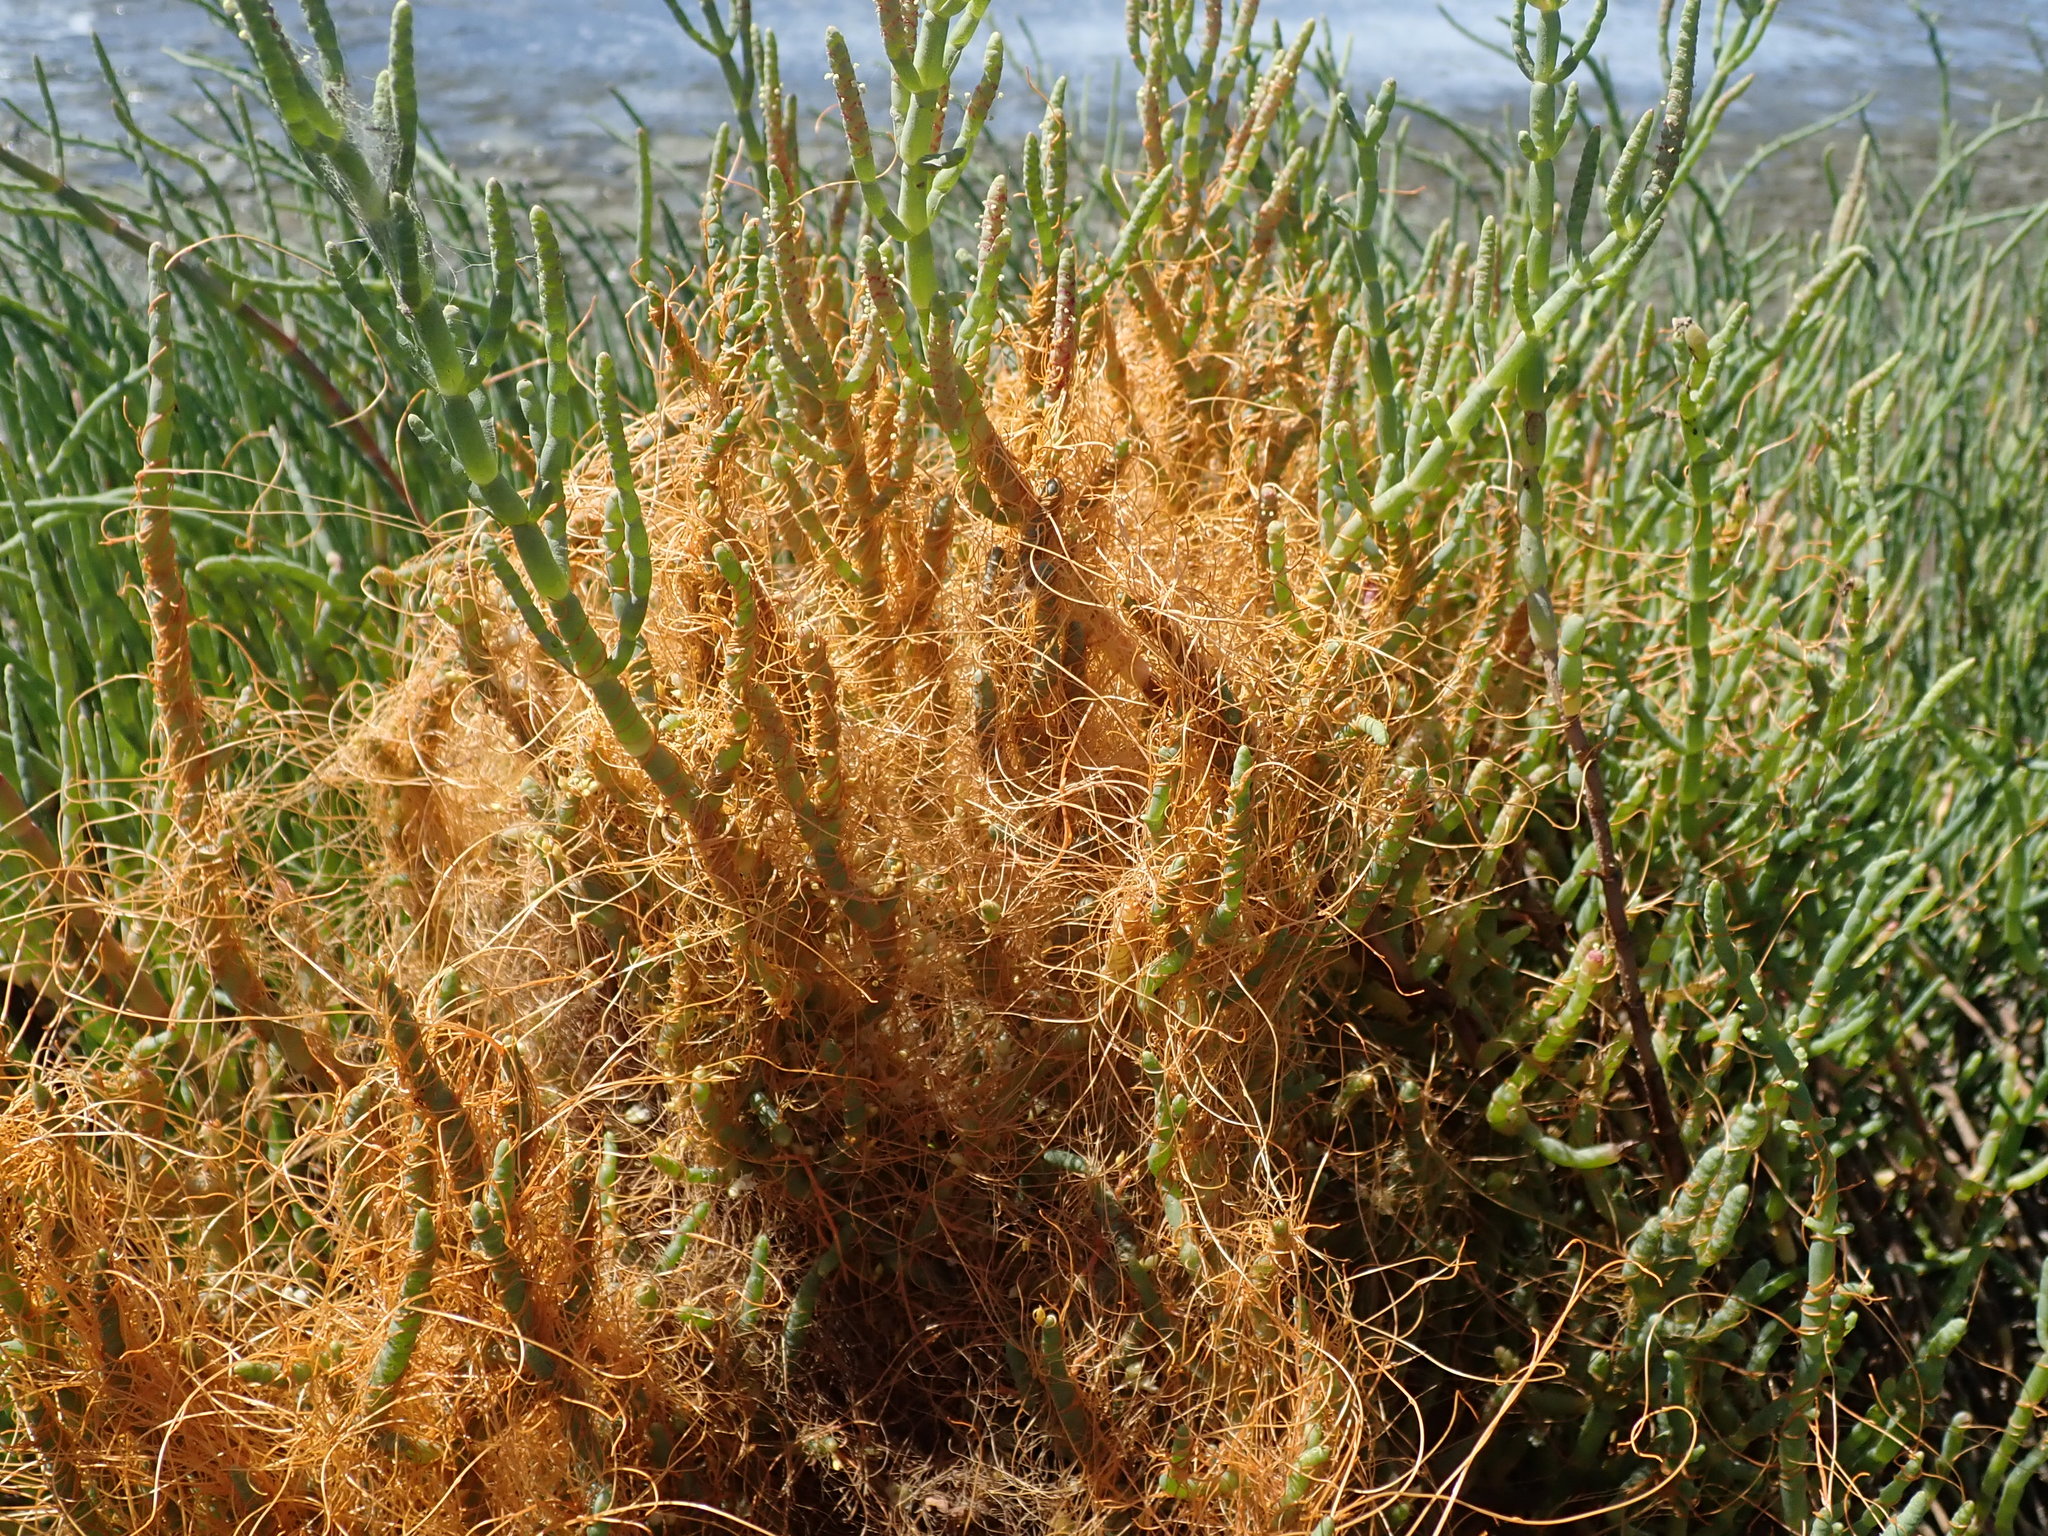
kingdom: Plantae
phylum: Tracheophyta
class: Magnoliopsida
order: Solanales
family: Convolvulaceae
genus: Cuscuta
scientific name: Cuscuta pacifica
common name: Large saltmarsh dodder
